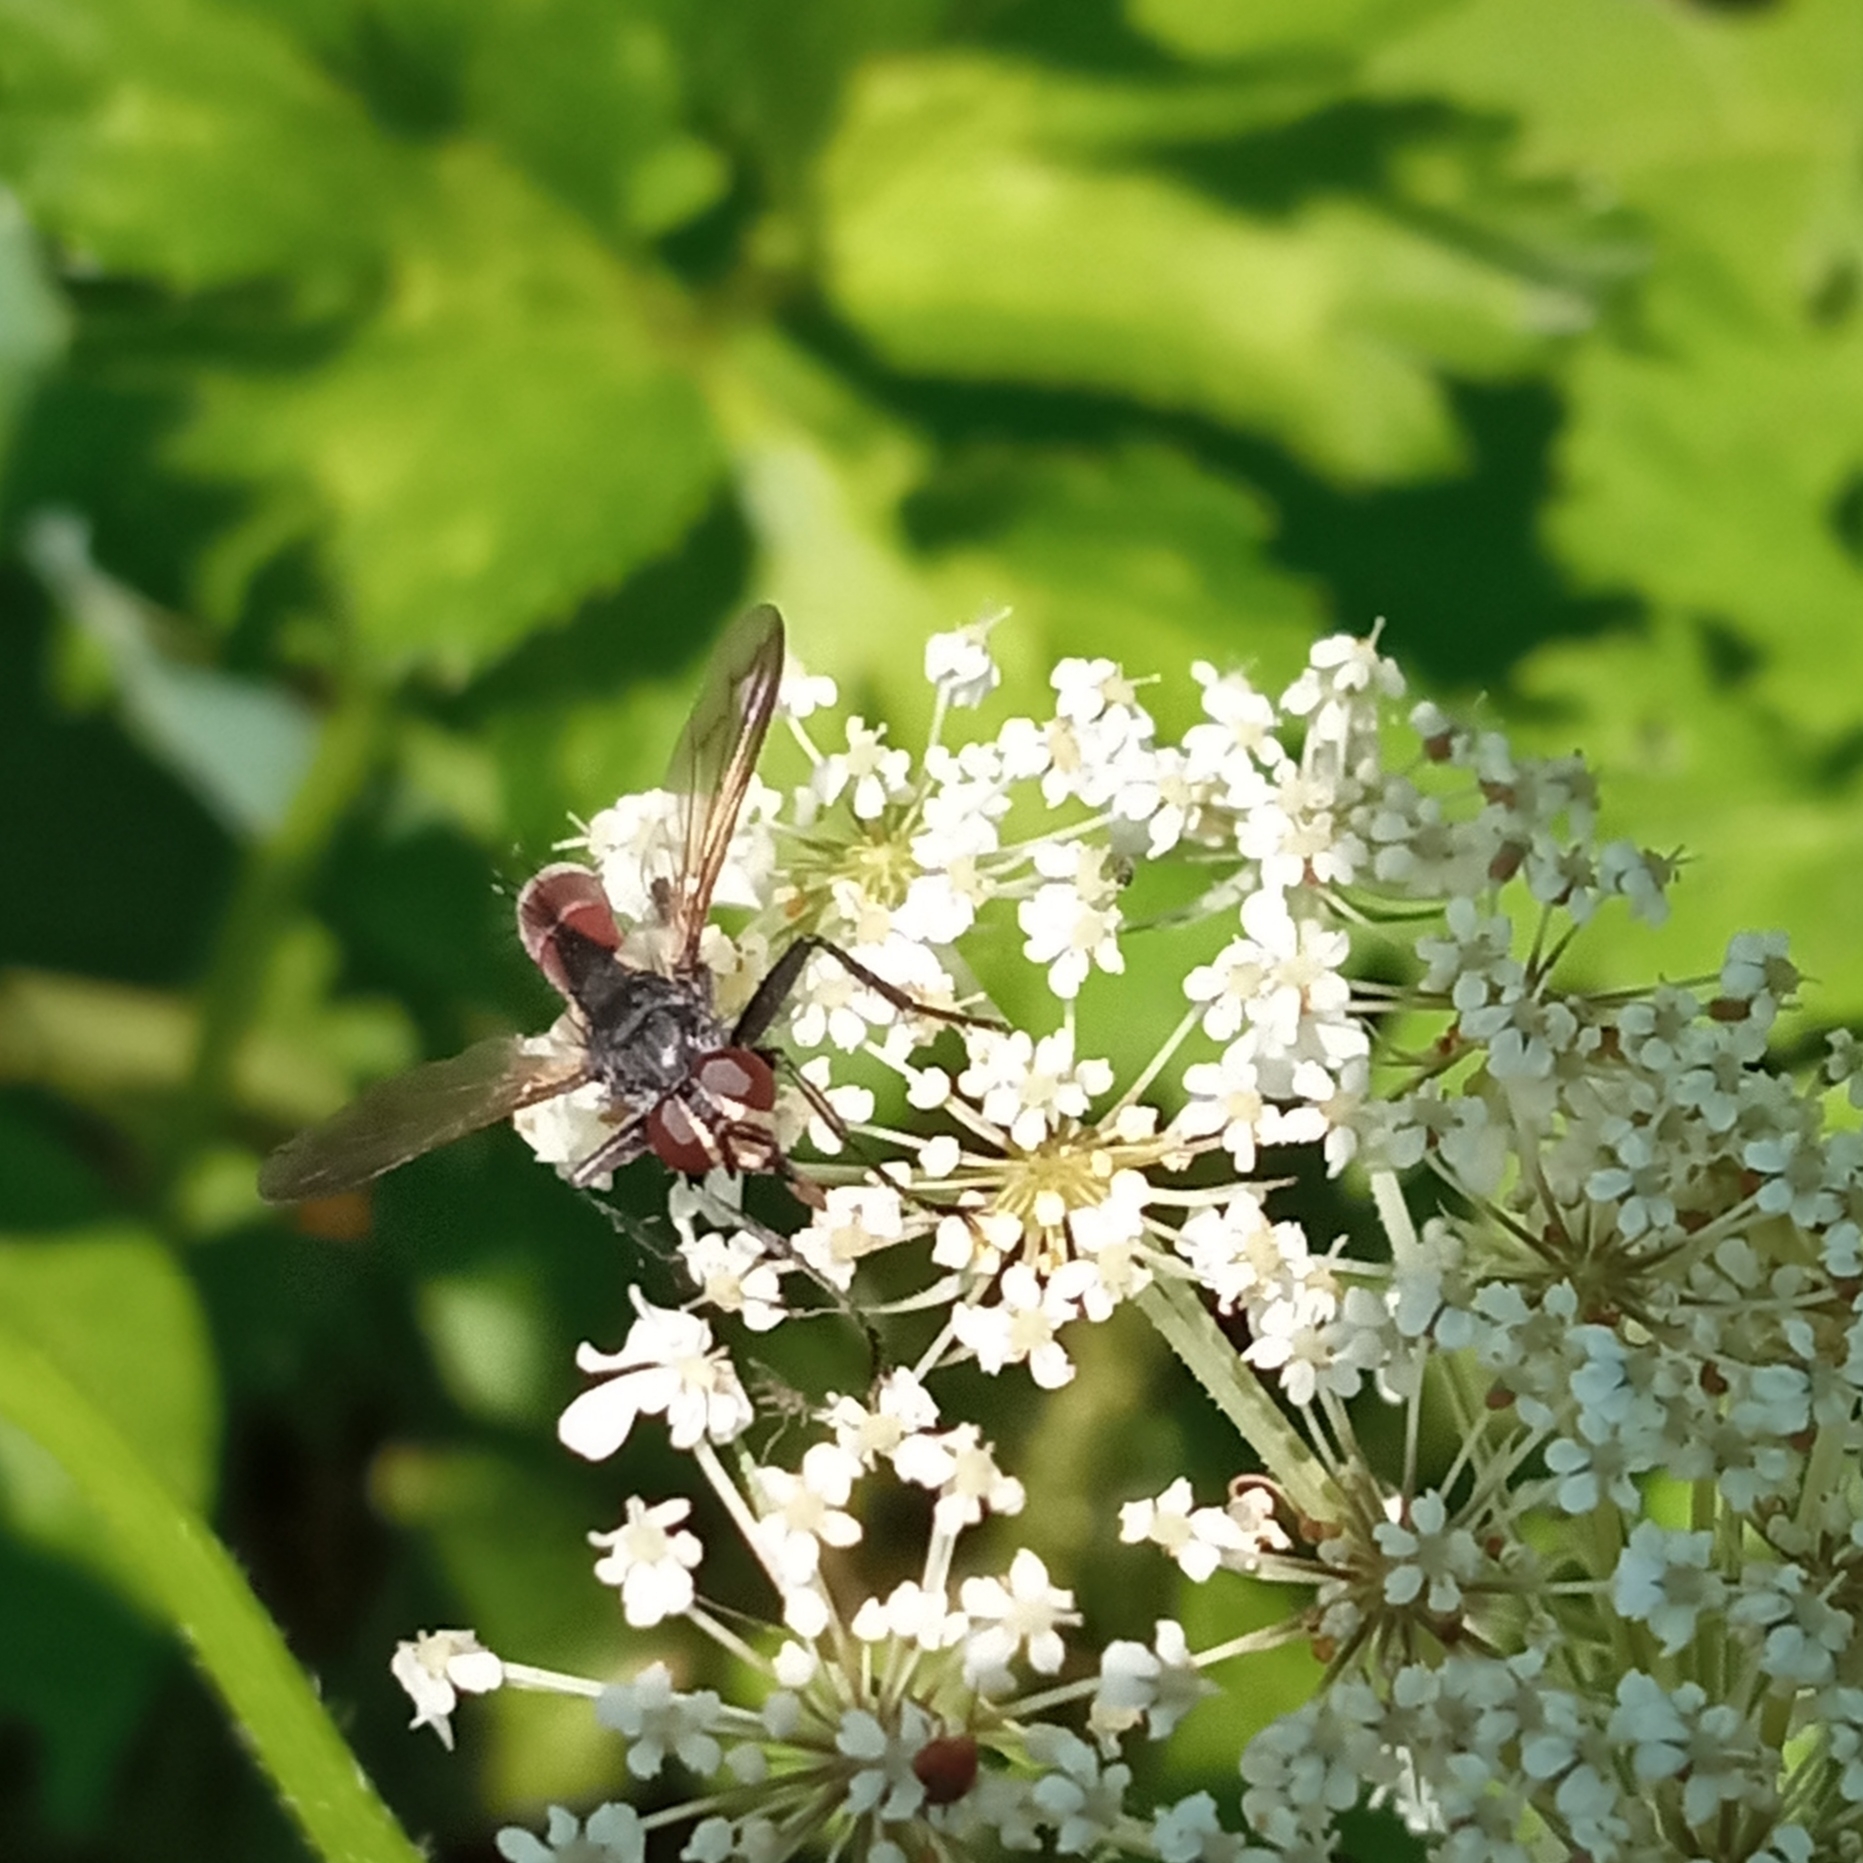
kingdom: Animalia
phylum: Arthropoda
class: Insecta
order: Diptera
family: Tachinidae
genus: Cylindromyia
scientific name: Cylindromyia bicolor
